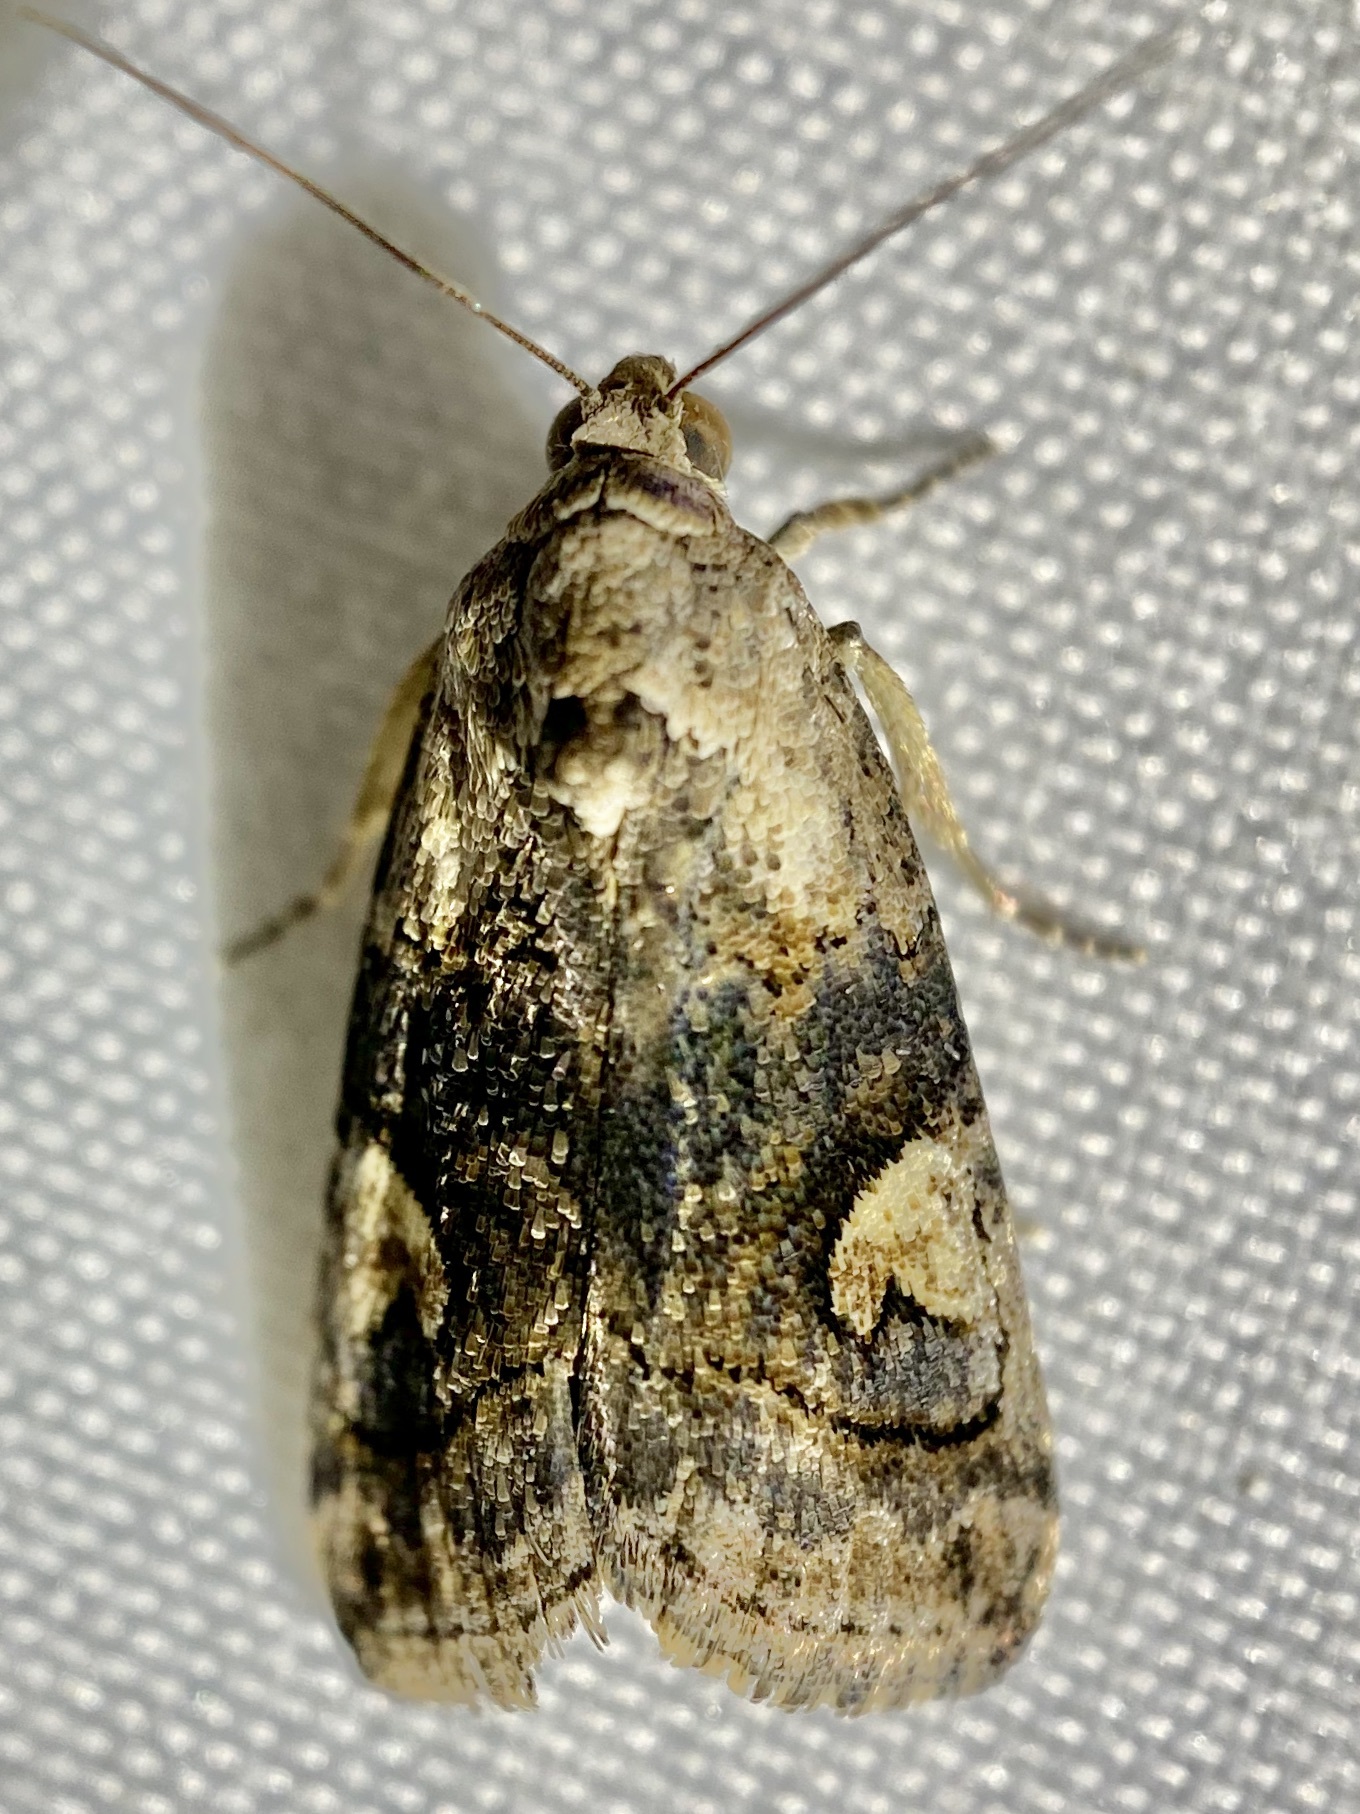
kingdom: Animalia
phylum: Arthropoda
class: Insecta
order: Lepidoptera
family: Noctuidae
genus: Metaponpneumata
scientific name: Metaponpneumata rogenhoferi
